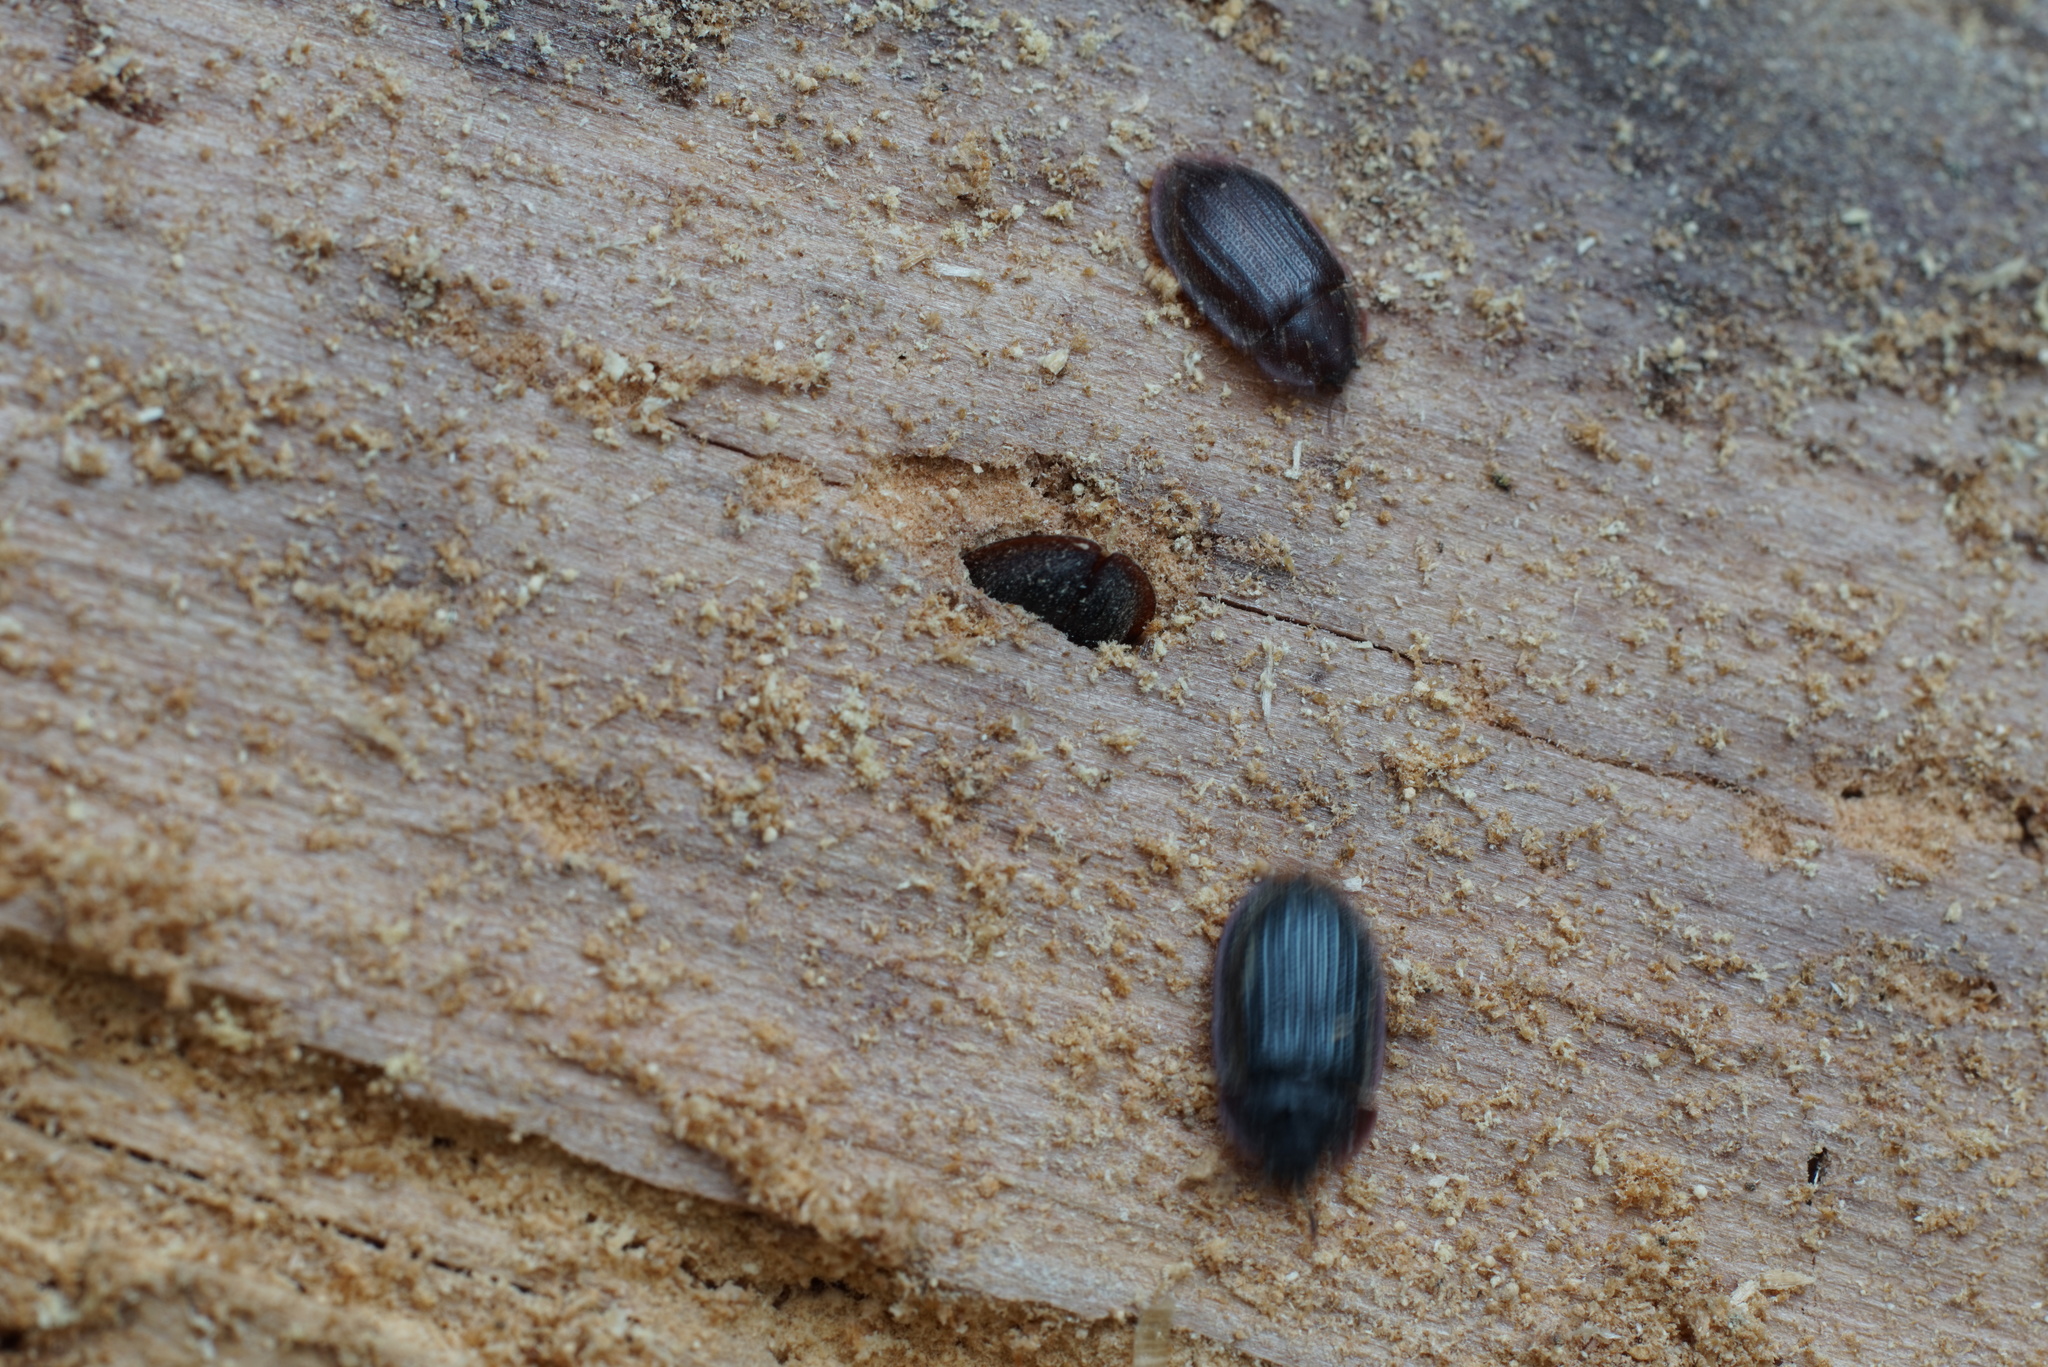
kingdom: Animalia
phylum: Arthropoda
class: Insecta
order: Coleoptera
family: Trogossitidae
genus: Peltis
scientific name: Peltis ferruginea
